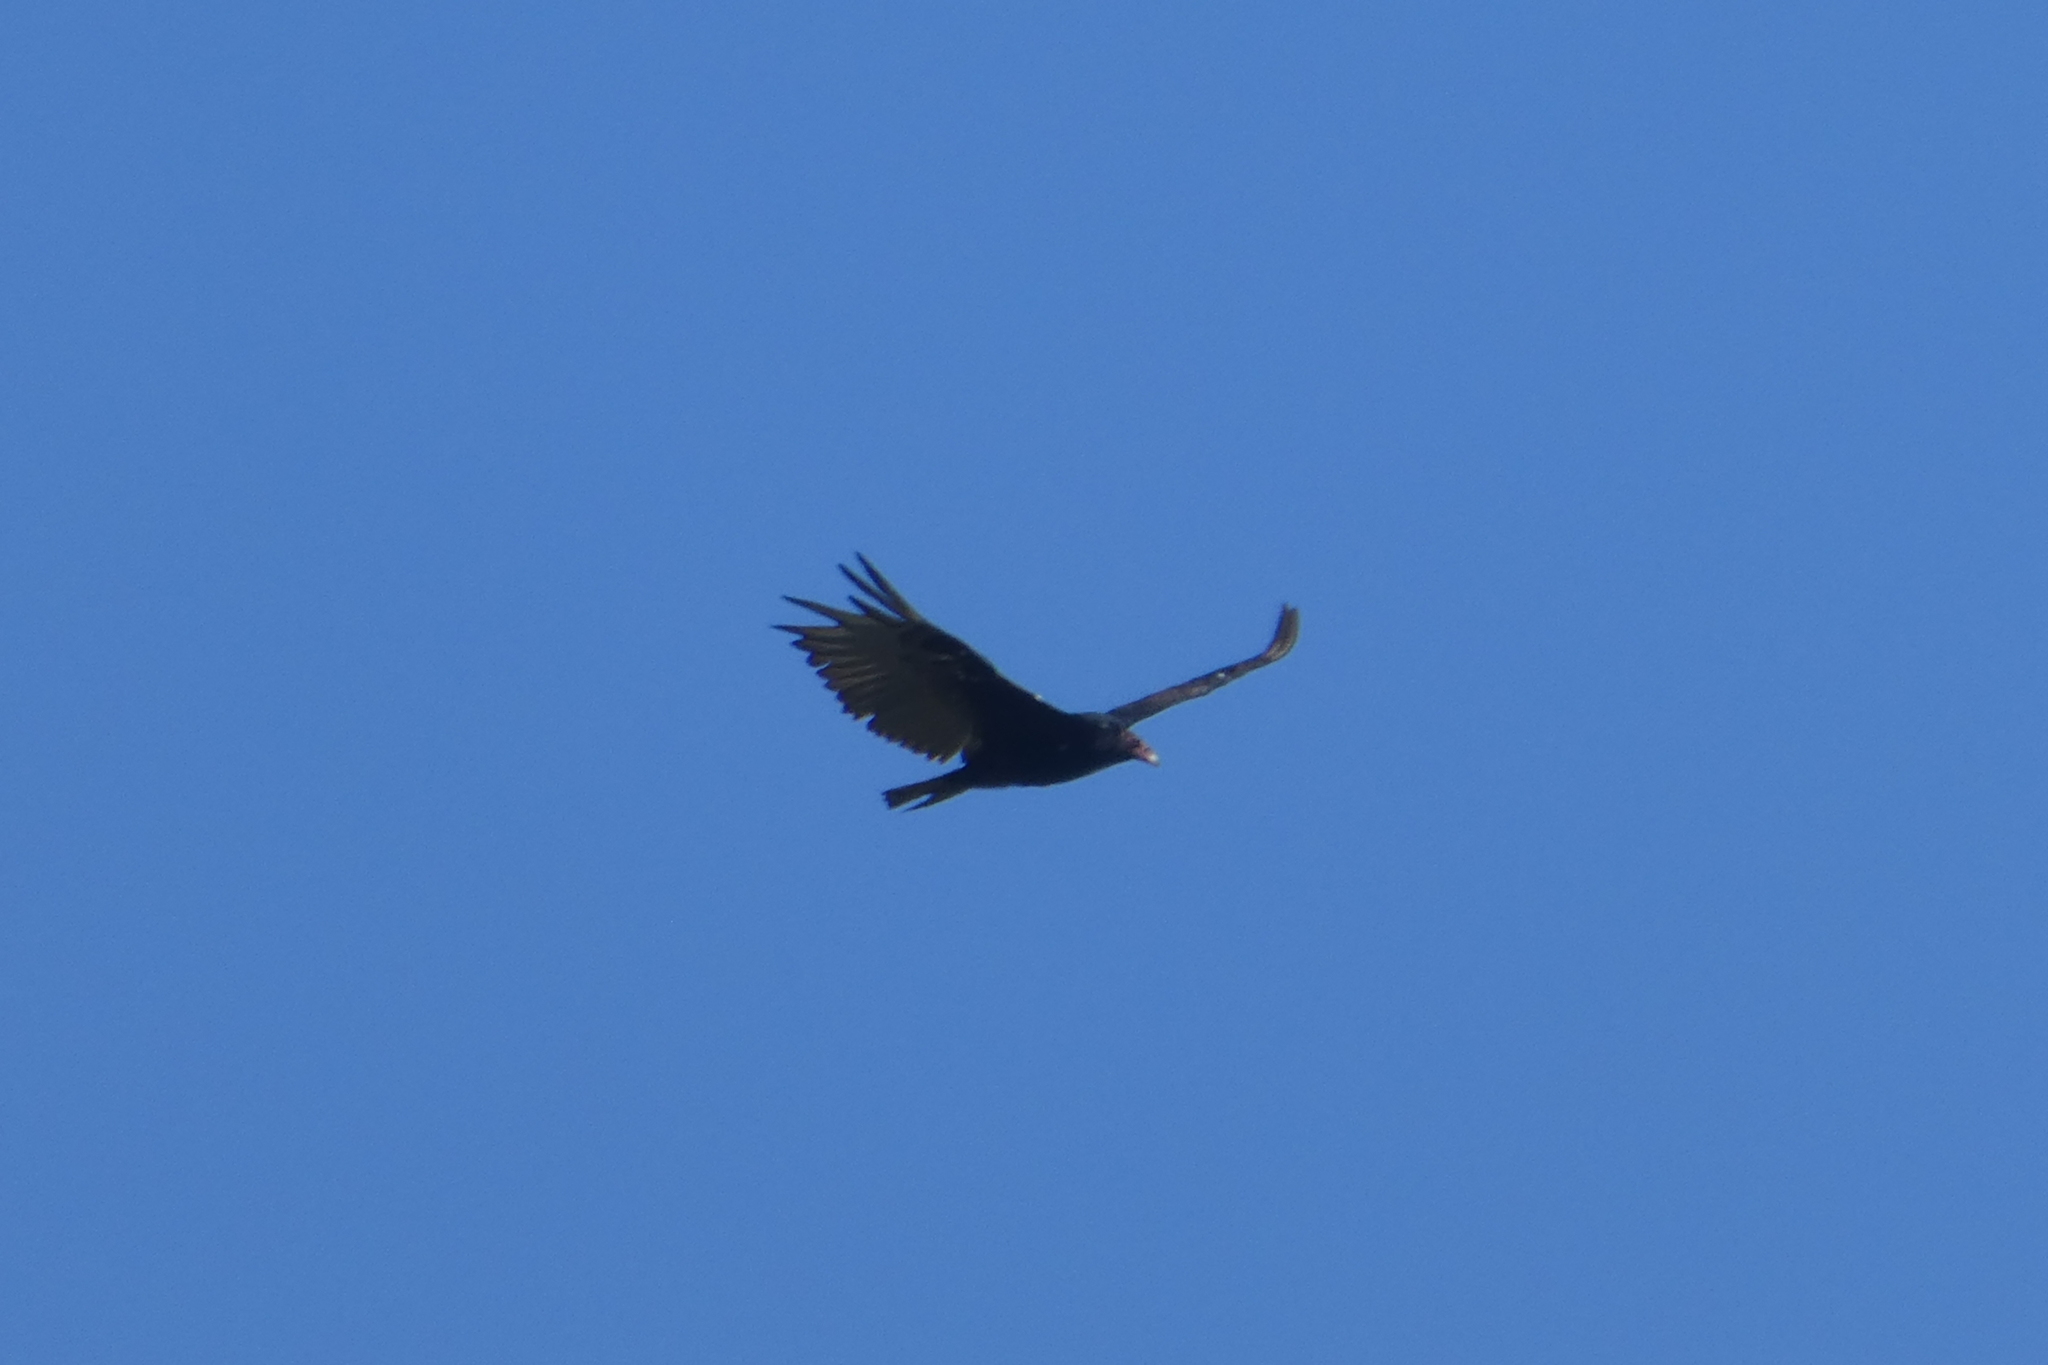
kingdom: Animalia
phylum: Chordata
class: Aves
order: Accipitriformes
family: Cathartidae
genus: Cathartes
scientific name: Cathartes aura
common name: Turkey vulture
